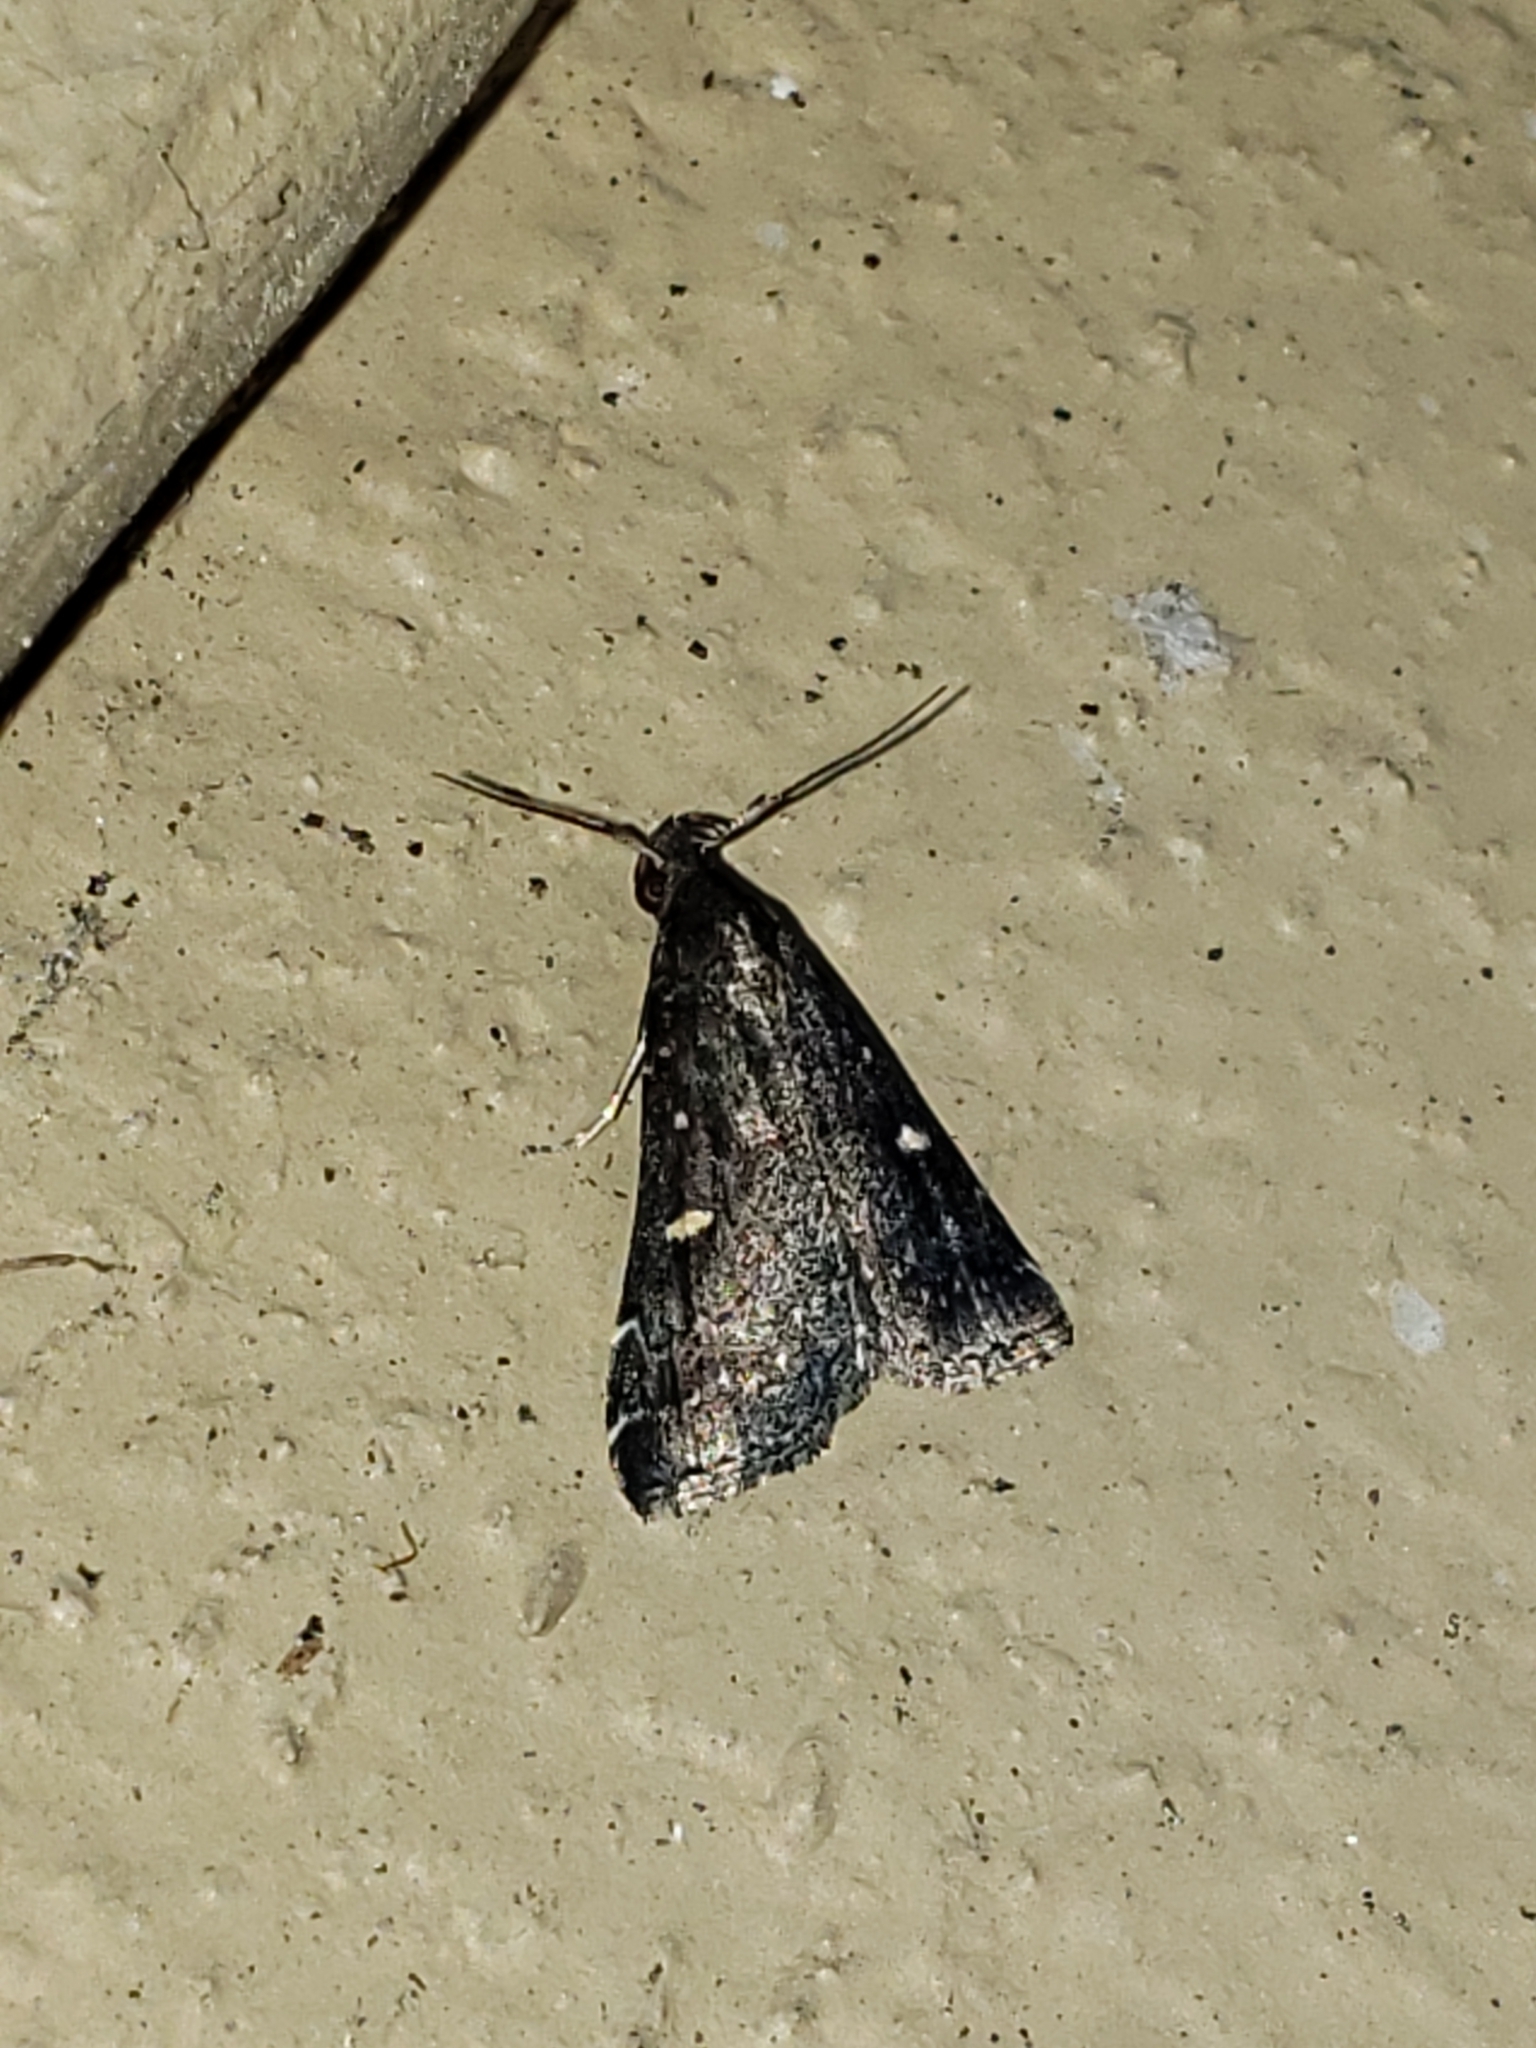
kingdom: Animalia
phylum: Arthropoda
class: Insecta
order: Lepidoptera
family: Erebidae
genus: Tetanolita
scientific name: Tetanolita mynesalis
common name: Smoky tetanolita moth
